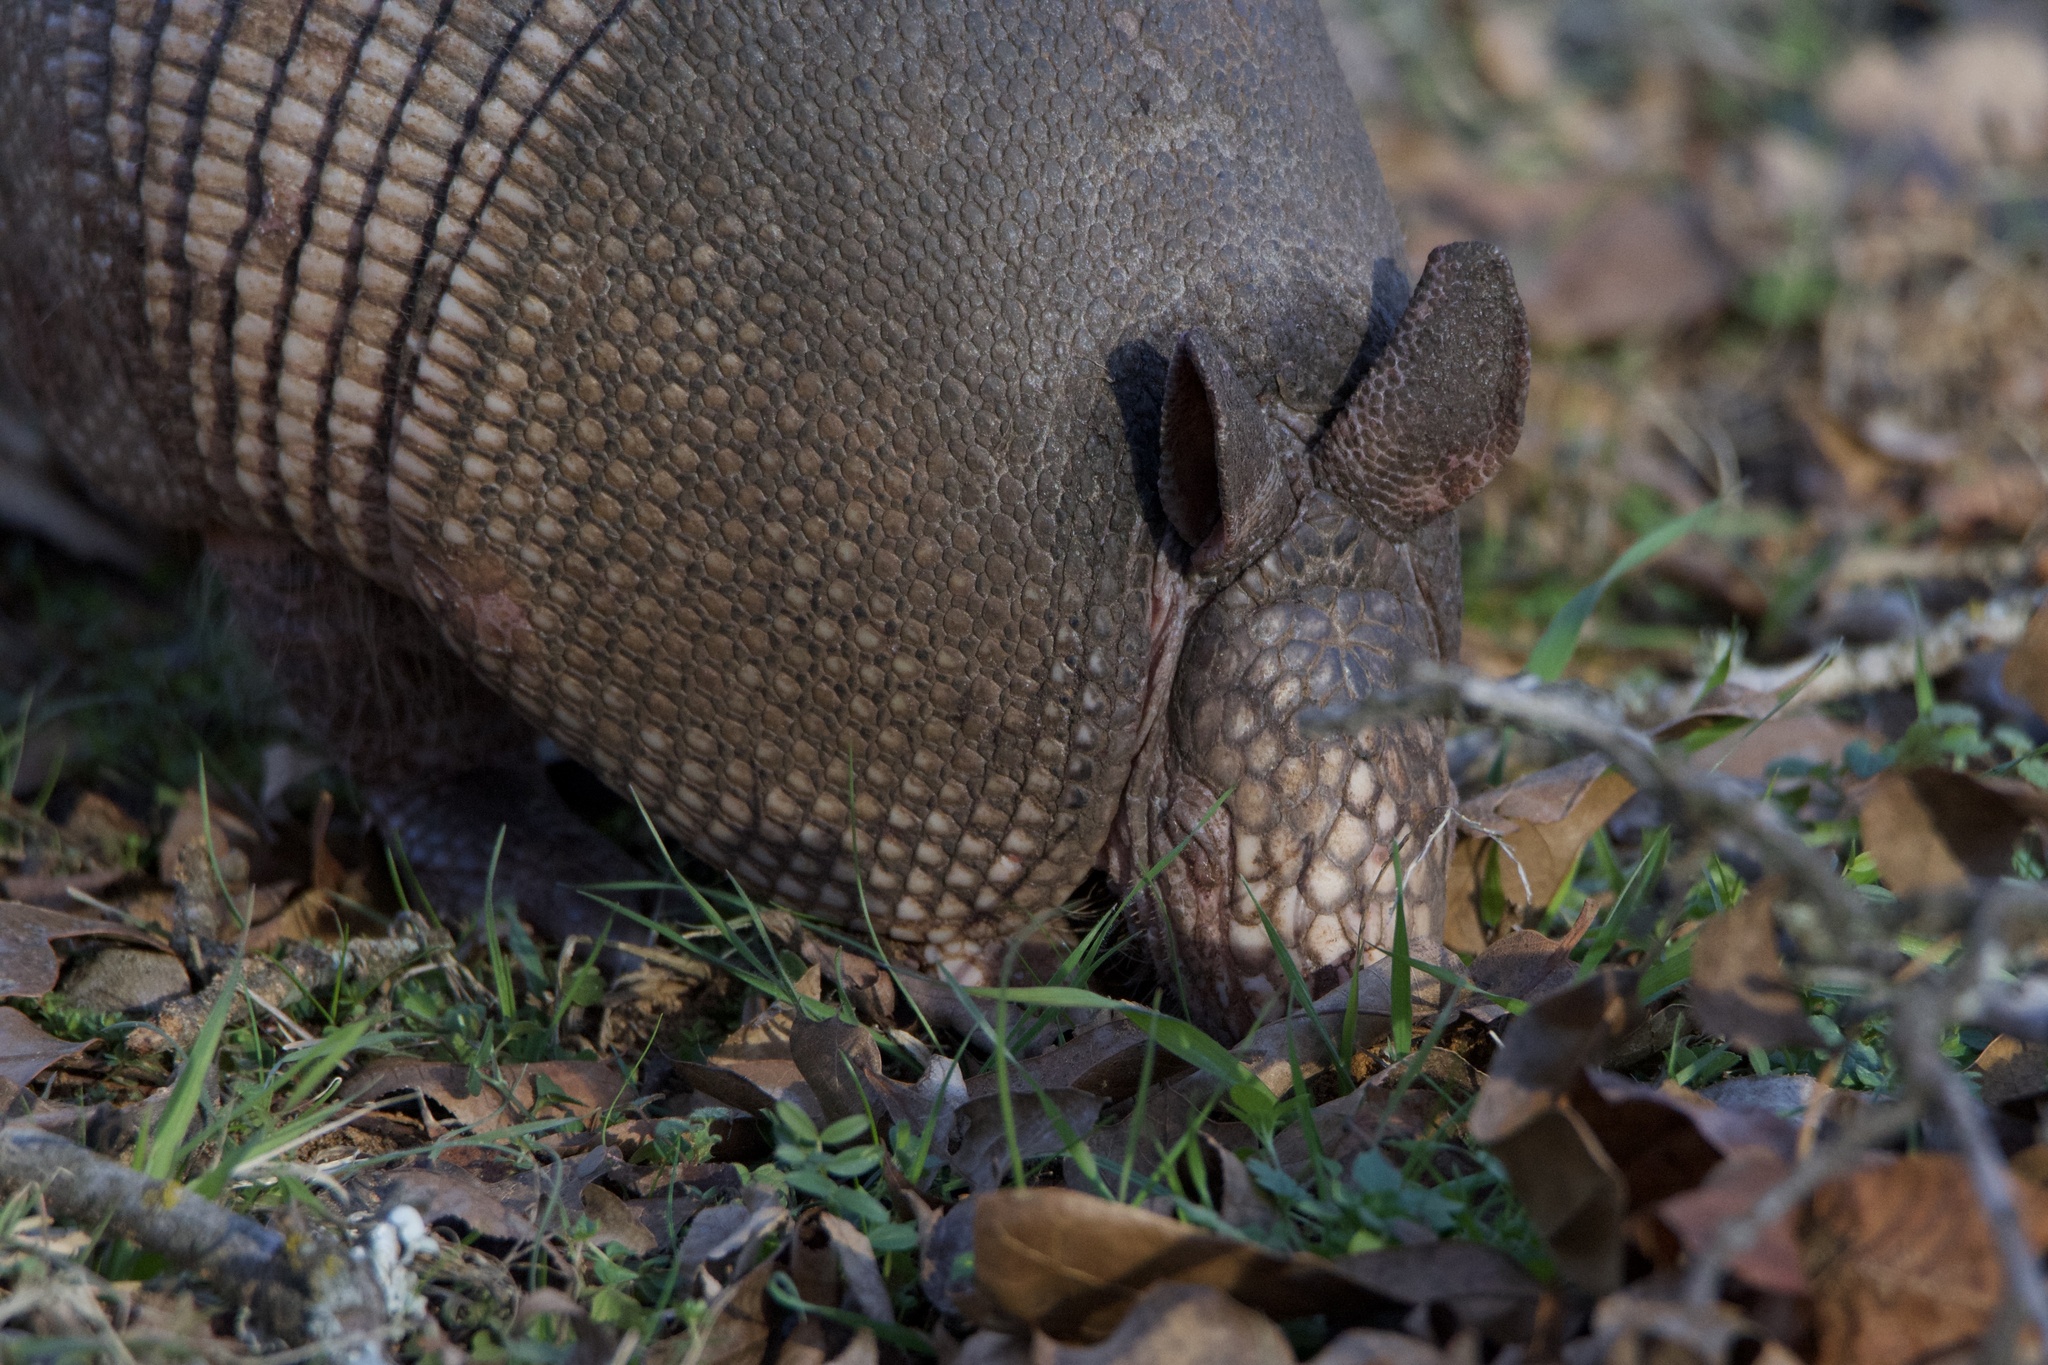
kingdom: Animalia
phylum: Chordata
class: Mammalia
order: Cingulata
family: Dasypodidae
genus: Dasypus
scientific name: Dasypus novemcinctus
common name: Nine-banded armadillo
